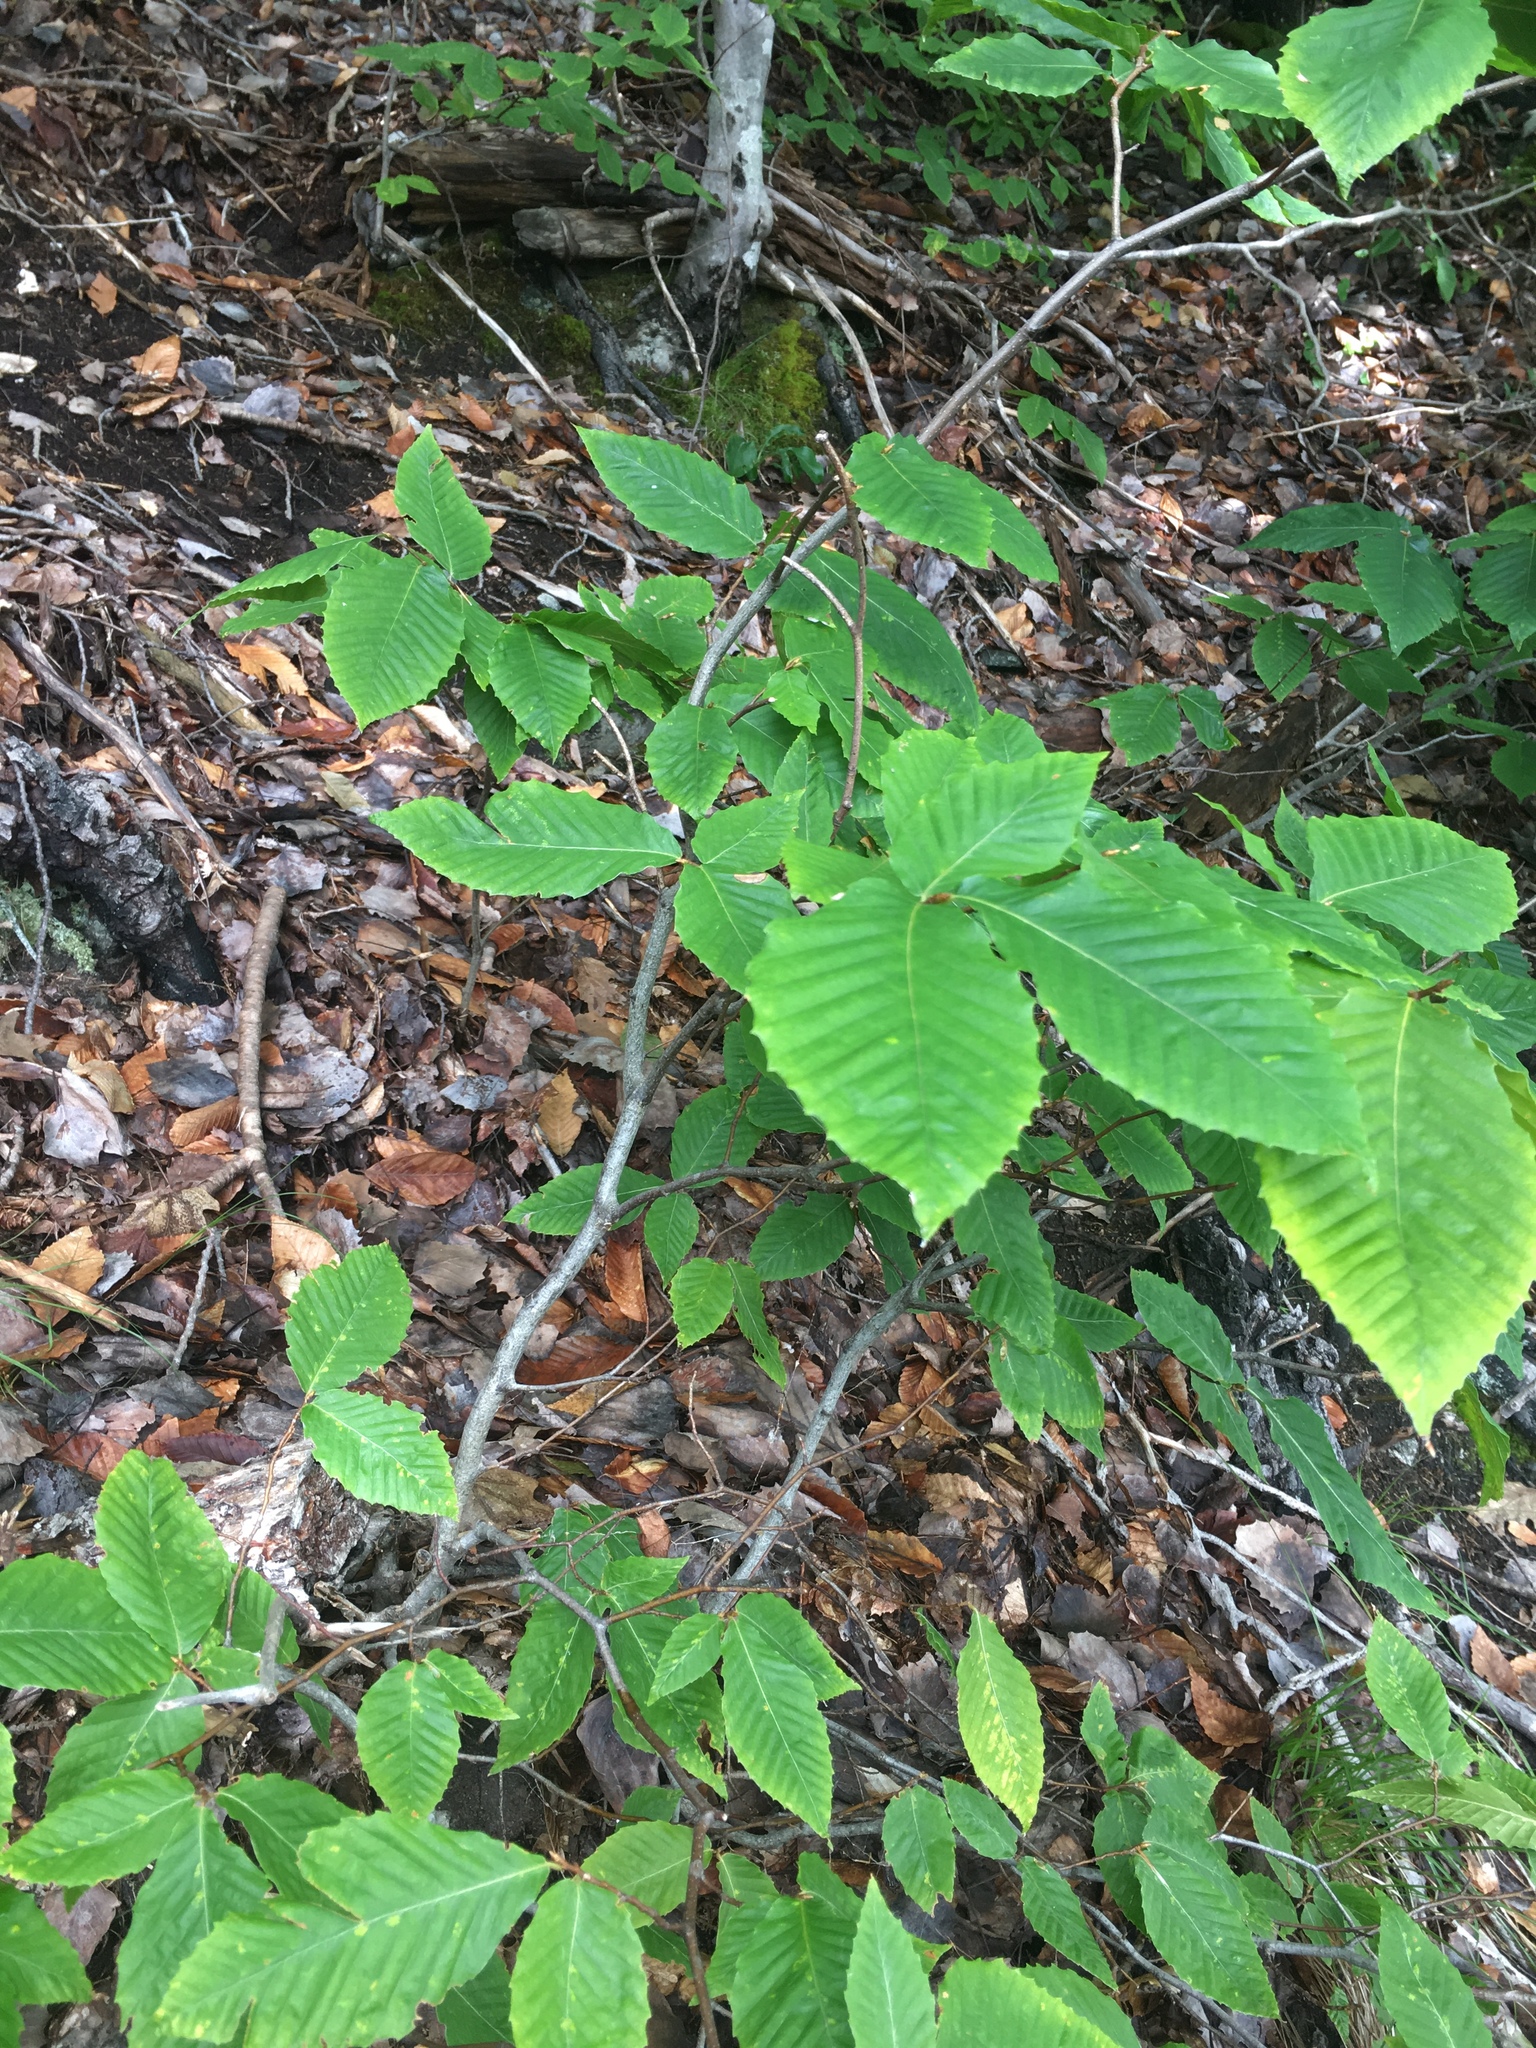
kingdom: Plantae
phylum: Tracheophyta
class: Magnoliopsida
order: Fagales
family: Fagaceae
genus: Fagus
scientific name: Fagus grandifolia
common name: American beech
